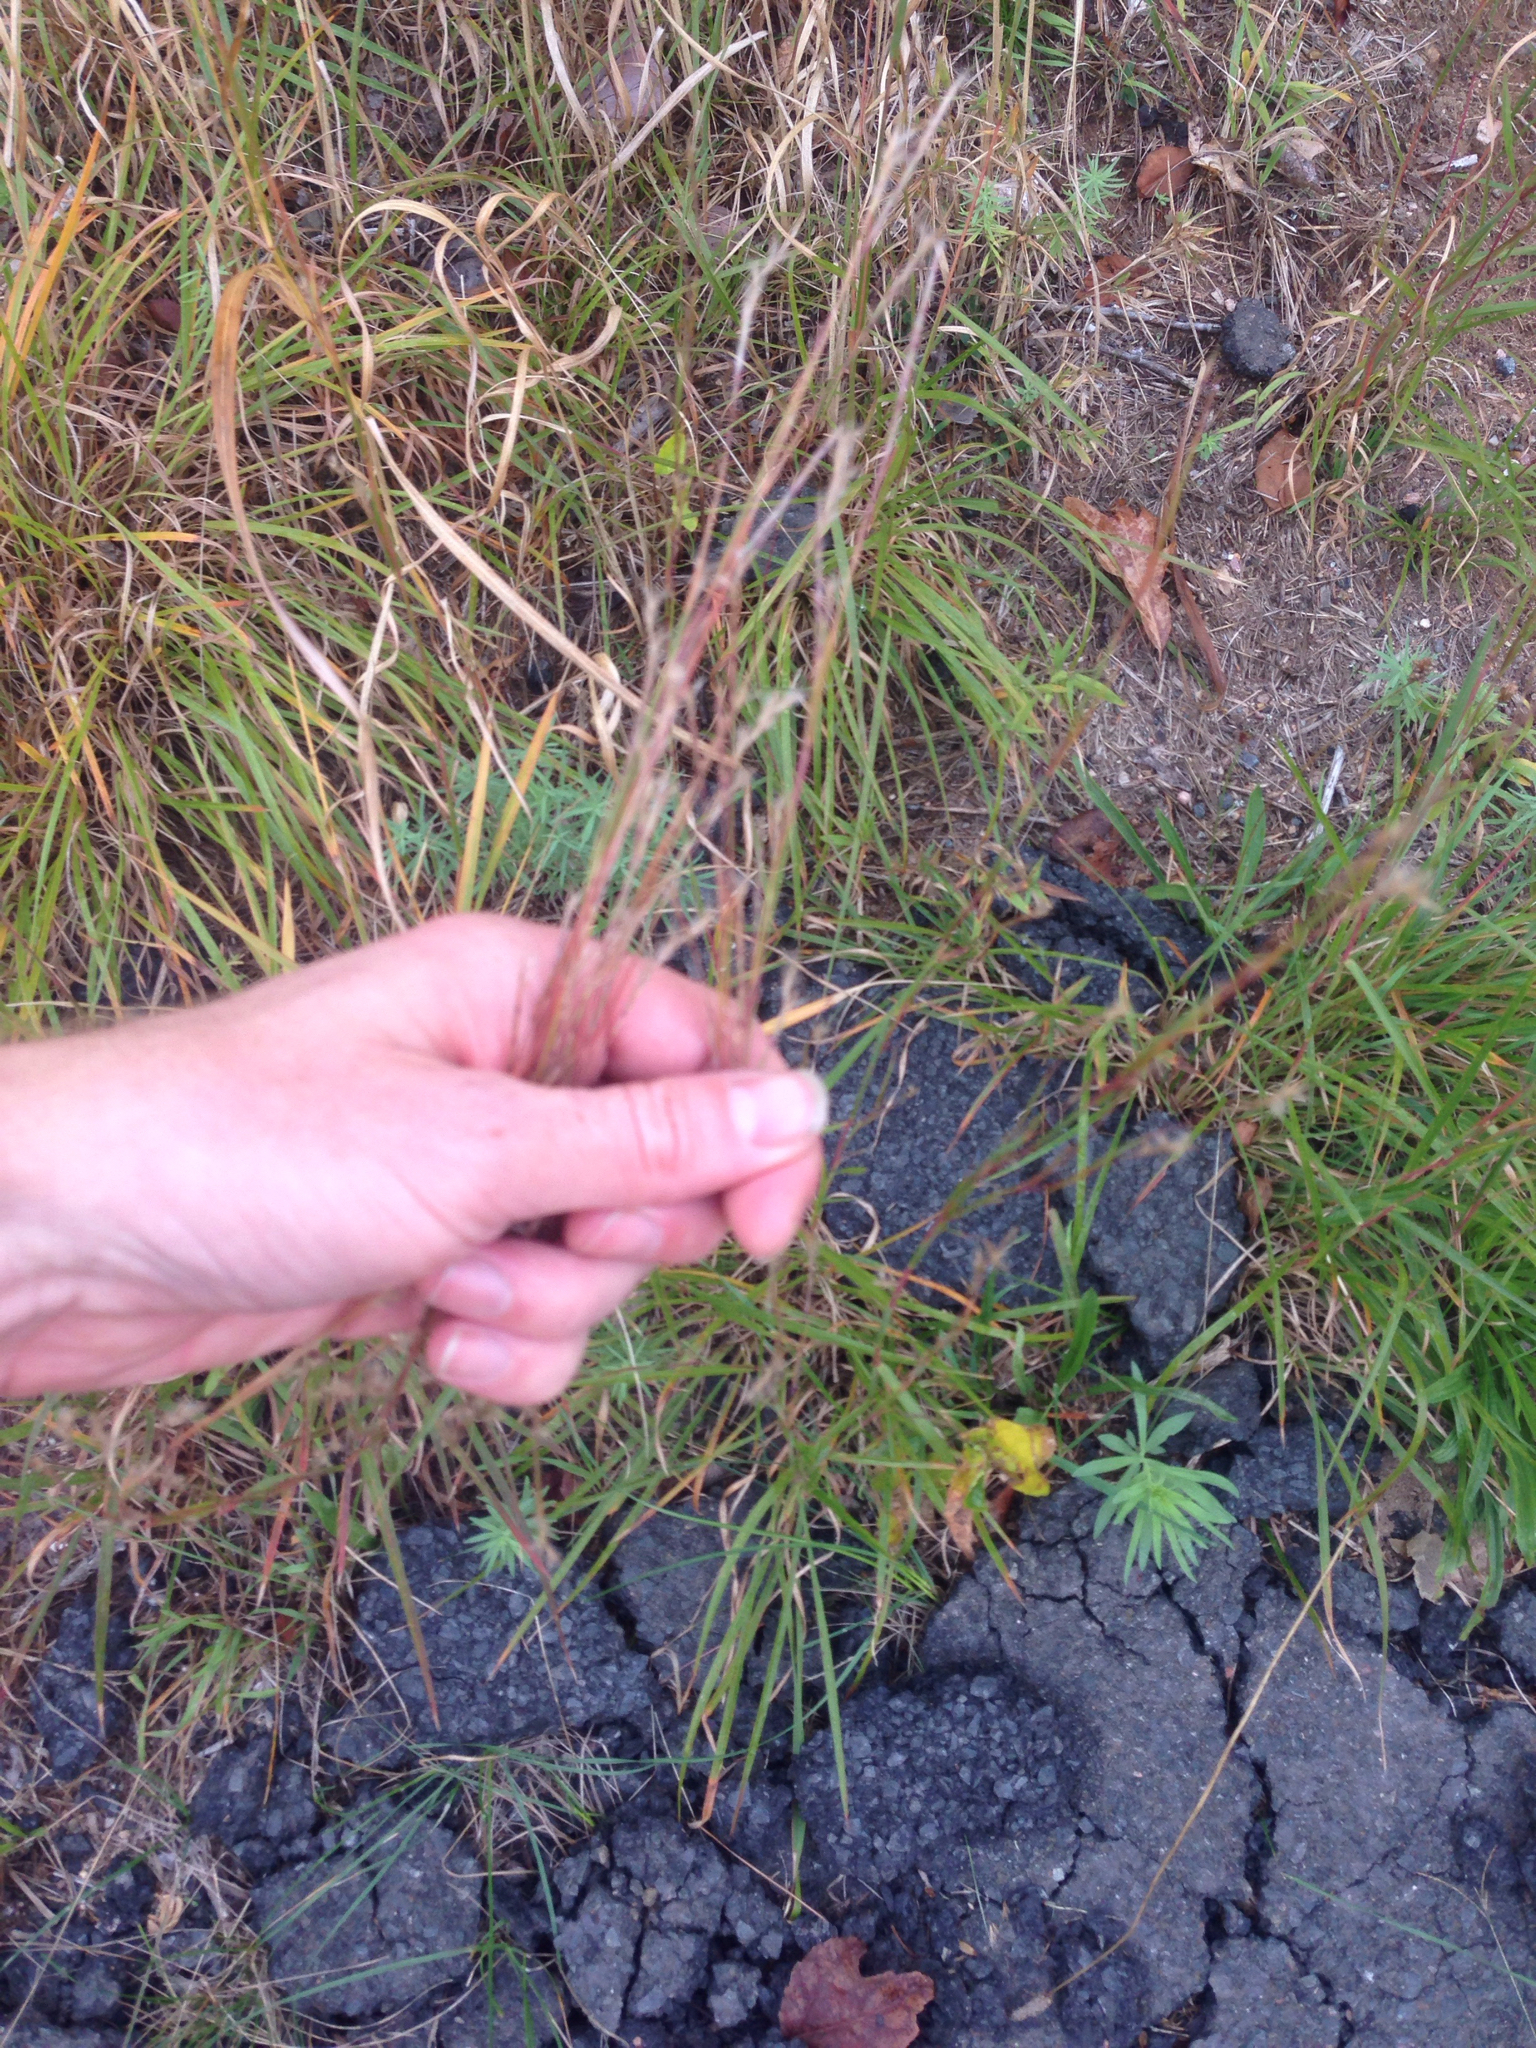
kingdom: Plantae
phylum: Tracheophyta
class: Liliopsida
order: Poales
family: Poaceae
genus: Schizachyrium
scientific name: Schizachyrium scoparium
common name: Little bluestem
